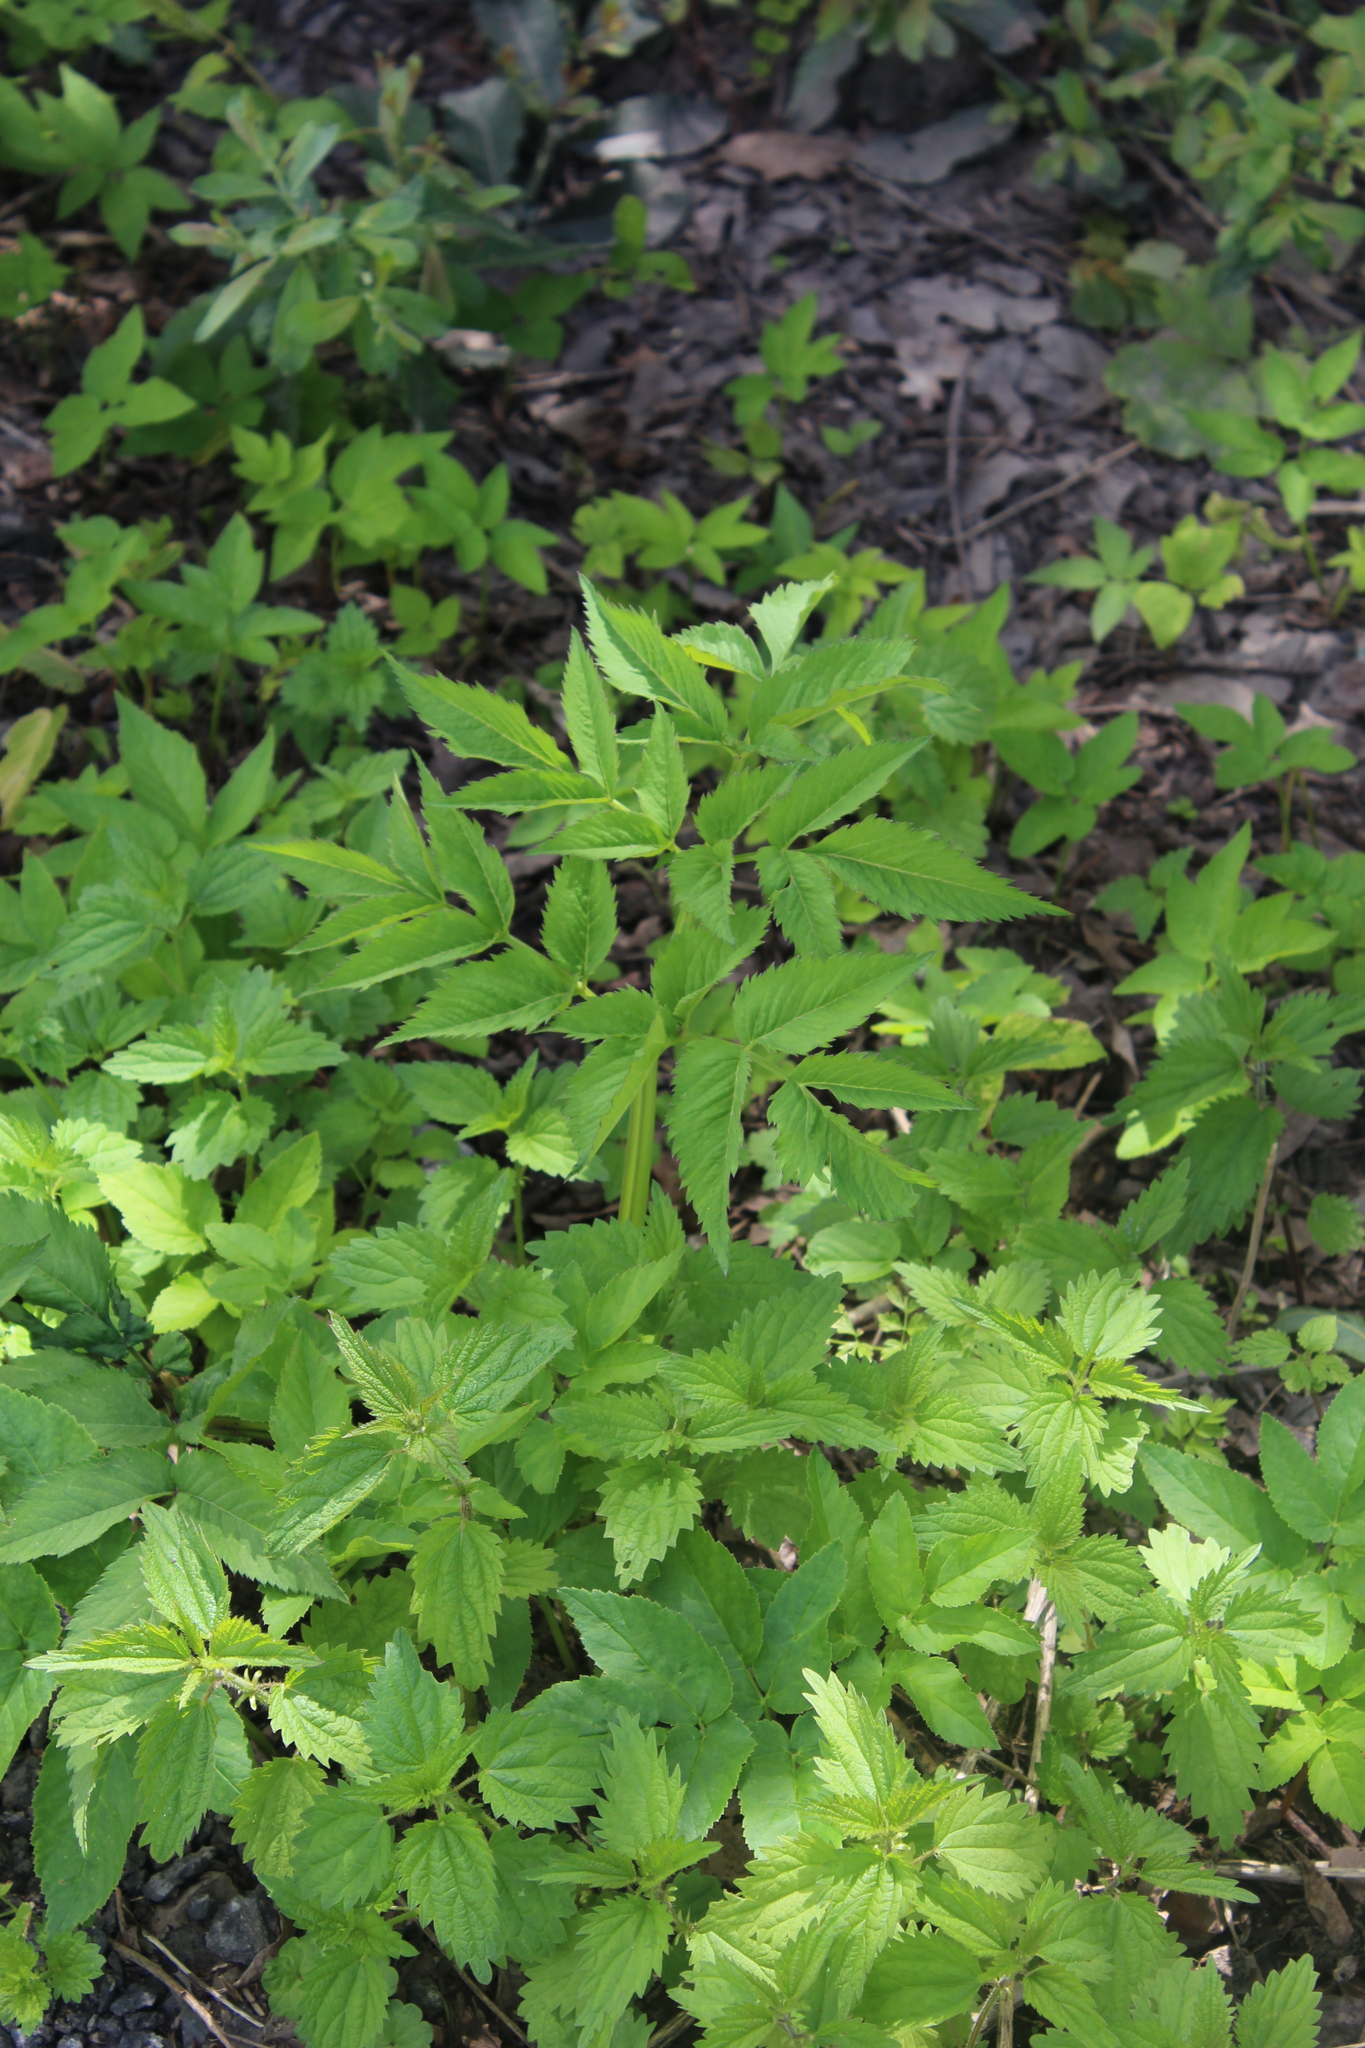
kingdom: Plantae
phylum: Tracheophyta
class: Magnoliopsida
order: Apiales
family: Apiaceae
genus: Angelica
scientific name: Angelica sylvestris
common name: Wild angelica
